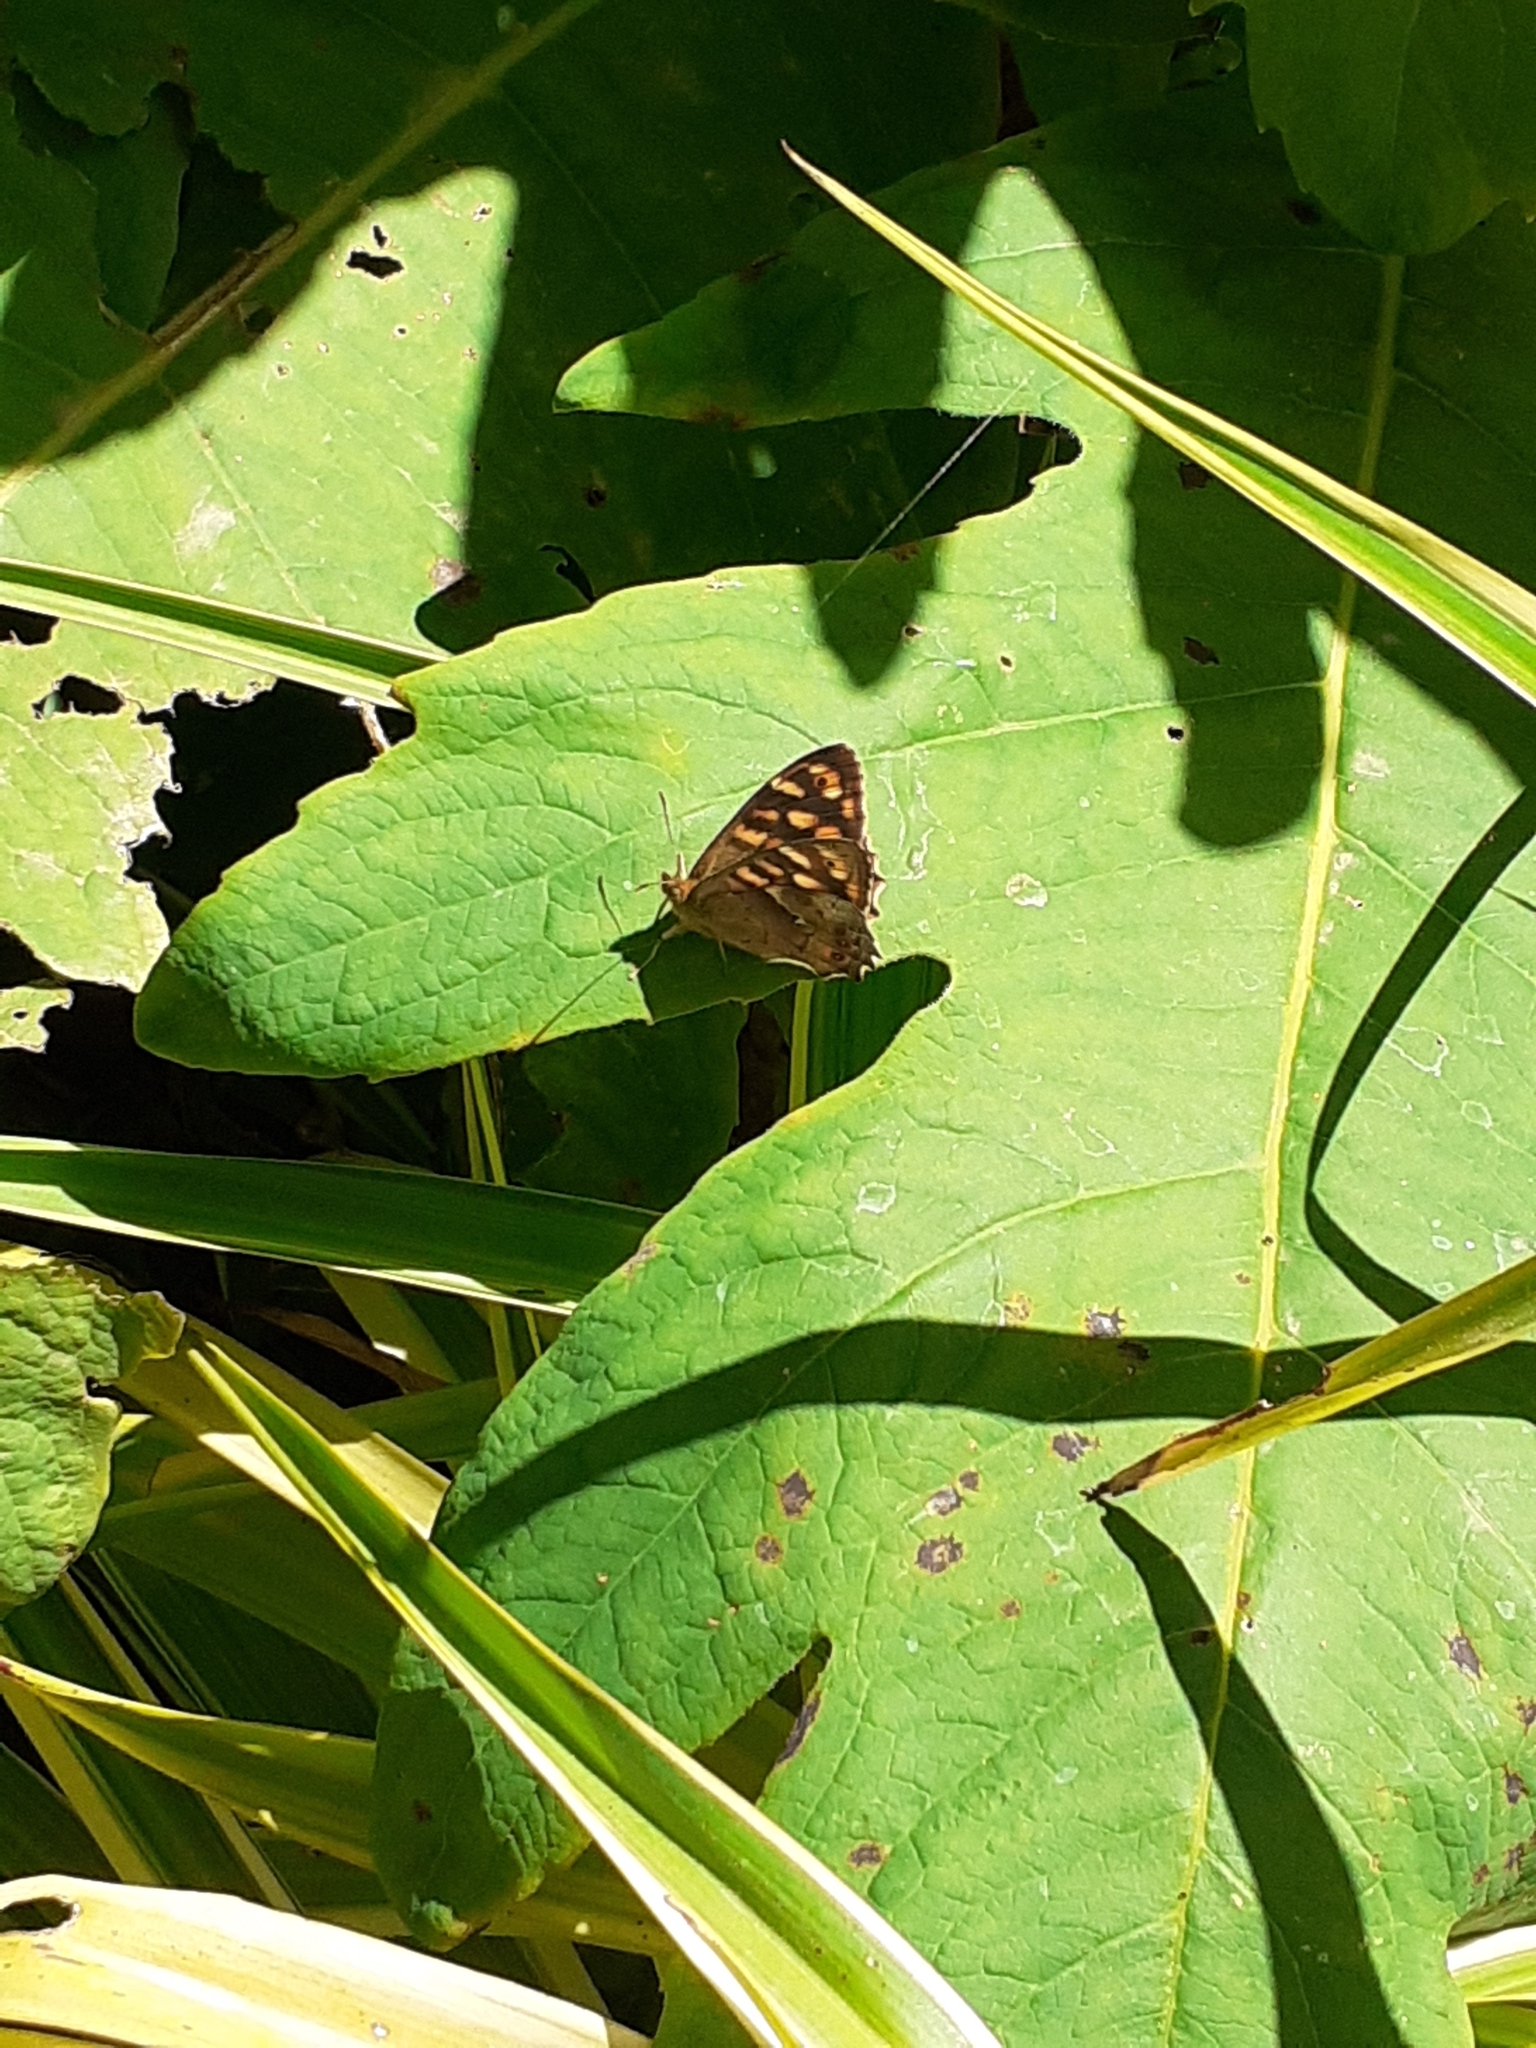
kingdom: Animalia
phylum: Arthropoda
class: Insecta
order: Lepidoptera
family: Nymphalidae
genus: Pararge
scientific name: Pararge aegeria
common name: Speckled wood
